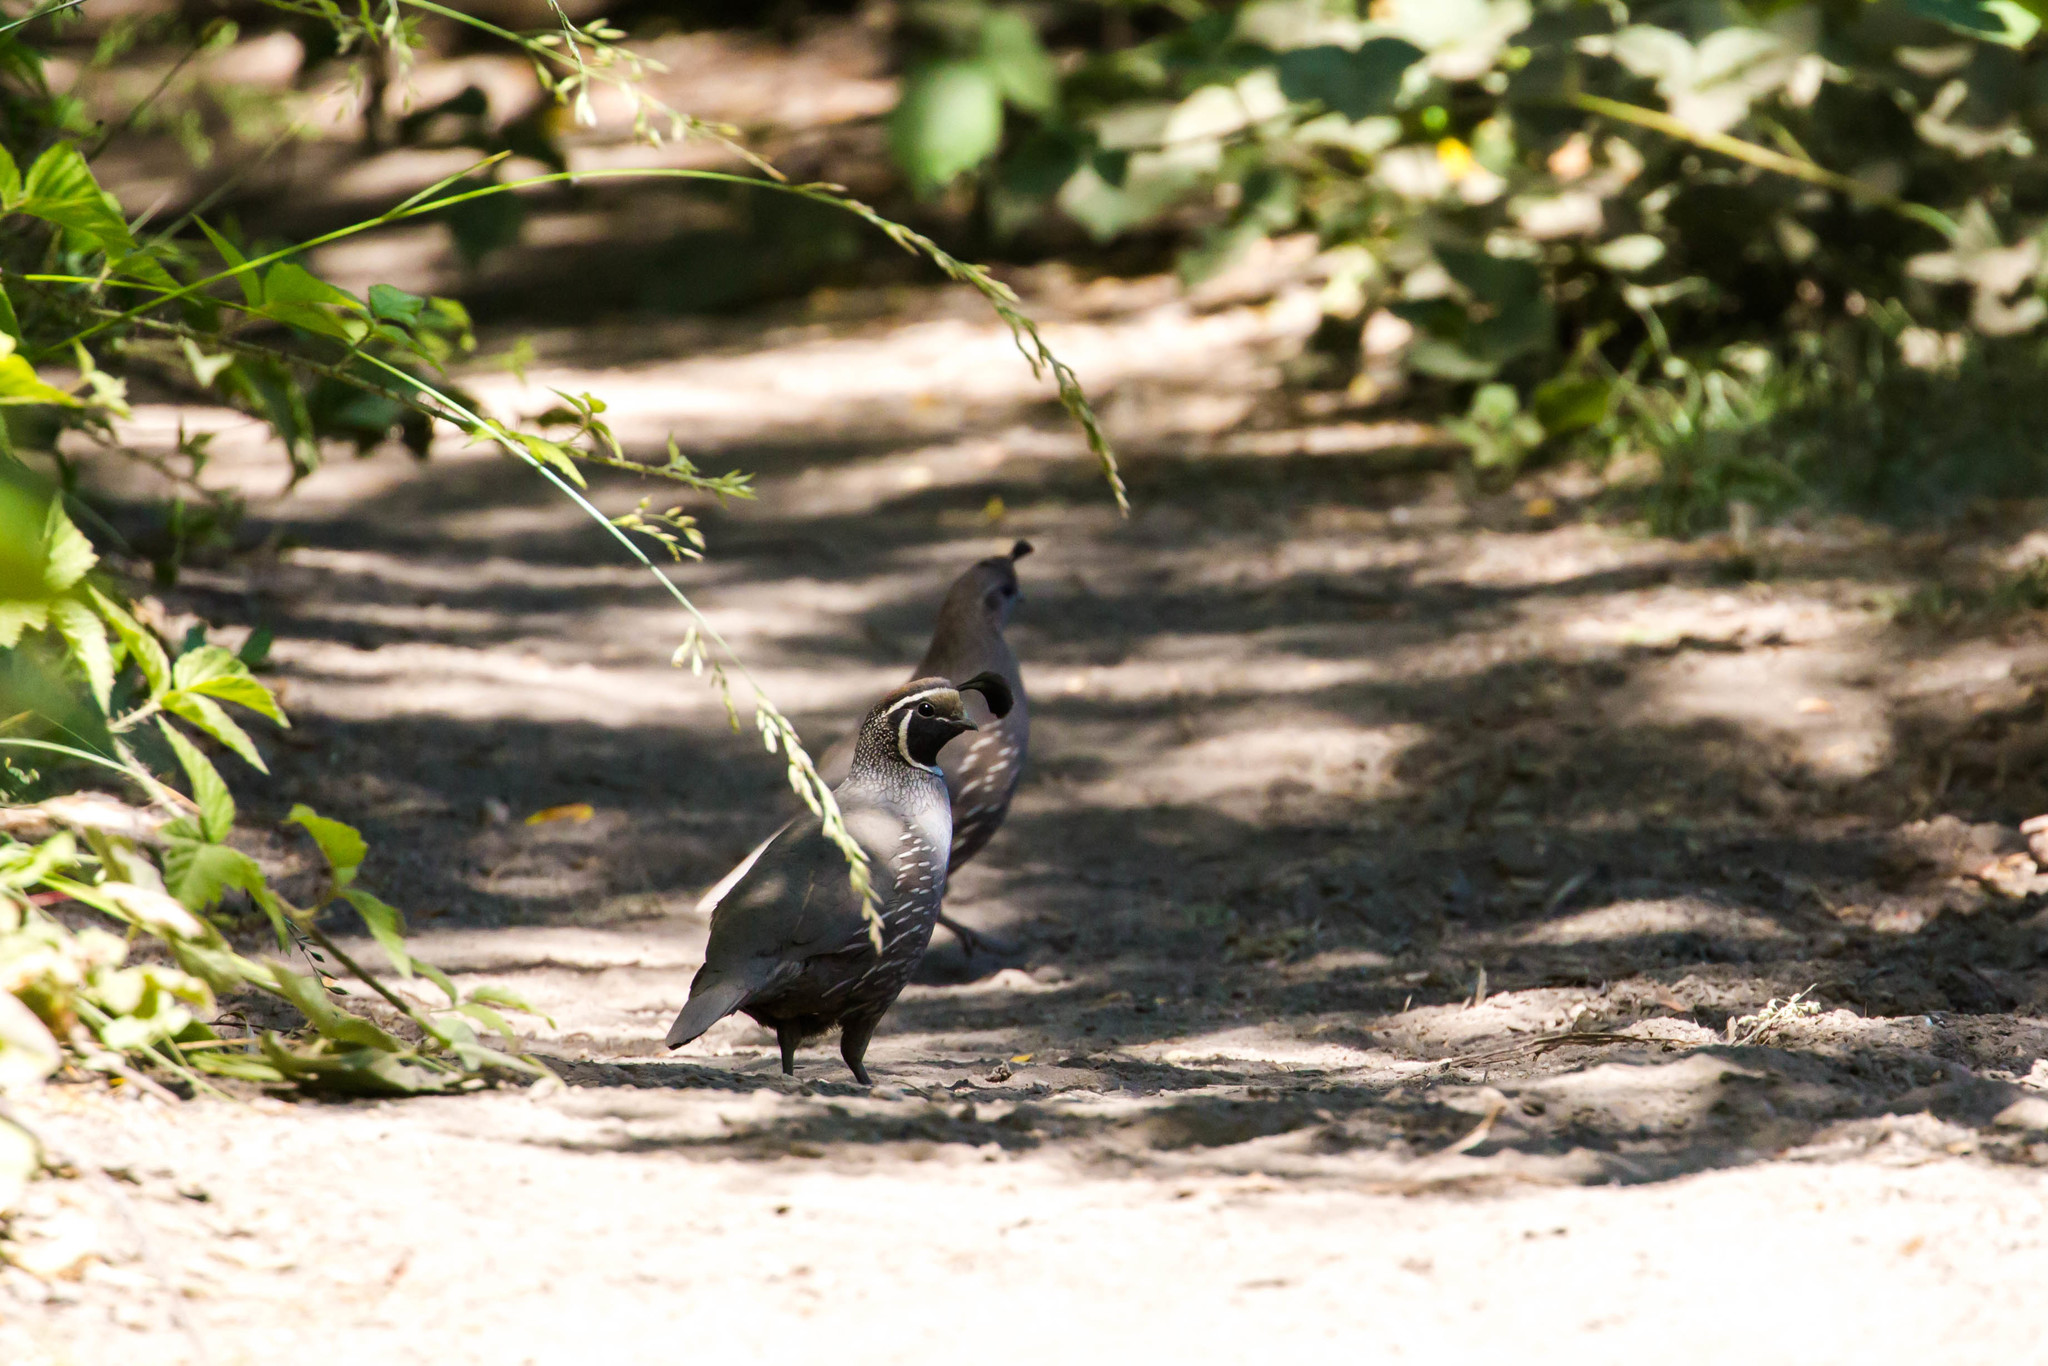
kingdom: Animalia
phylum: Chordata
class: Aves
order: Galliformes
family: Odontophoridae
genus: Callipepla
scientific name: Callipepla californica
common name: California quail
